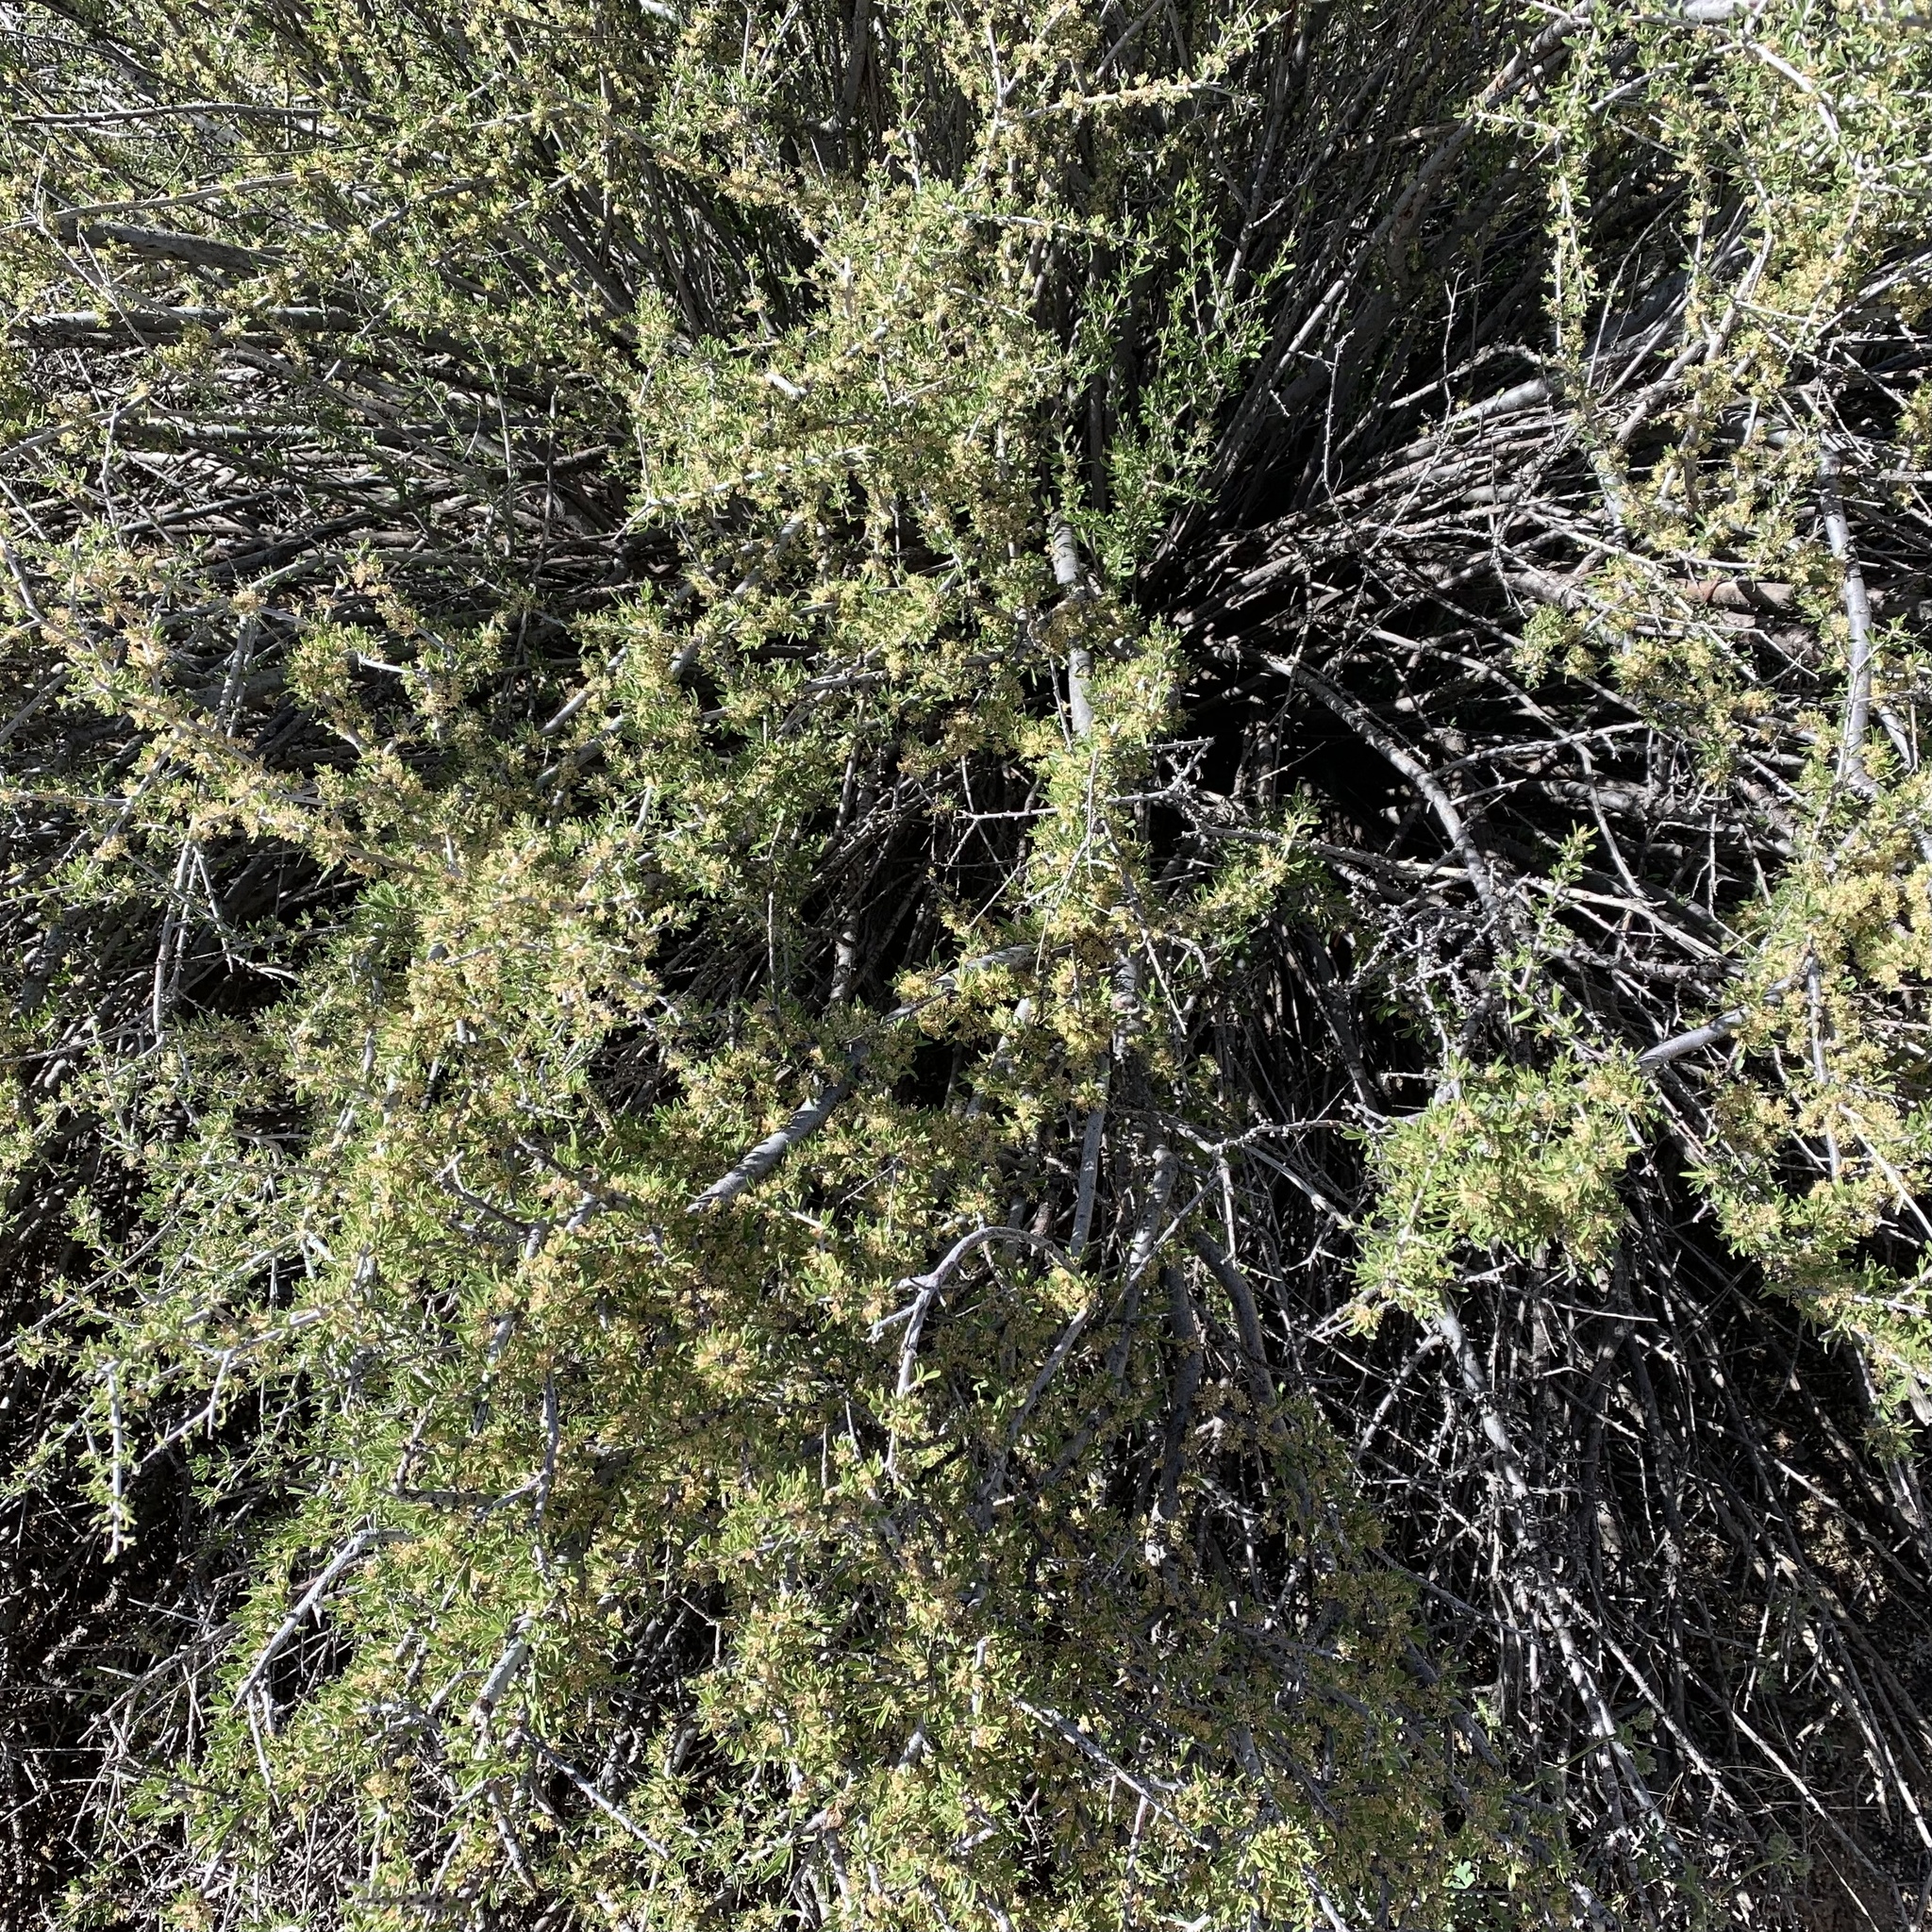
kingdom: Plantae
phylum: Tracheophyta
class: Magnoliopsida
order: Rosales
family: Rosaceae
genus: Prunus
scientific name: Prunus fasciculata
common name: Desert almond
